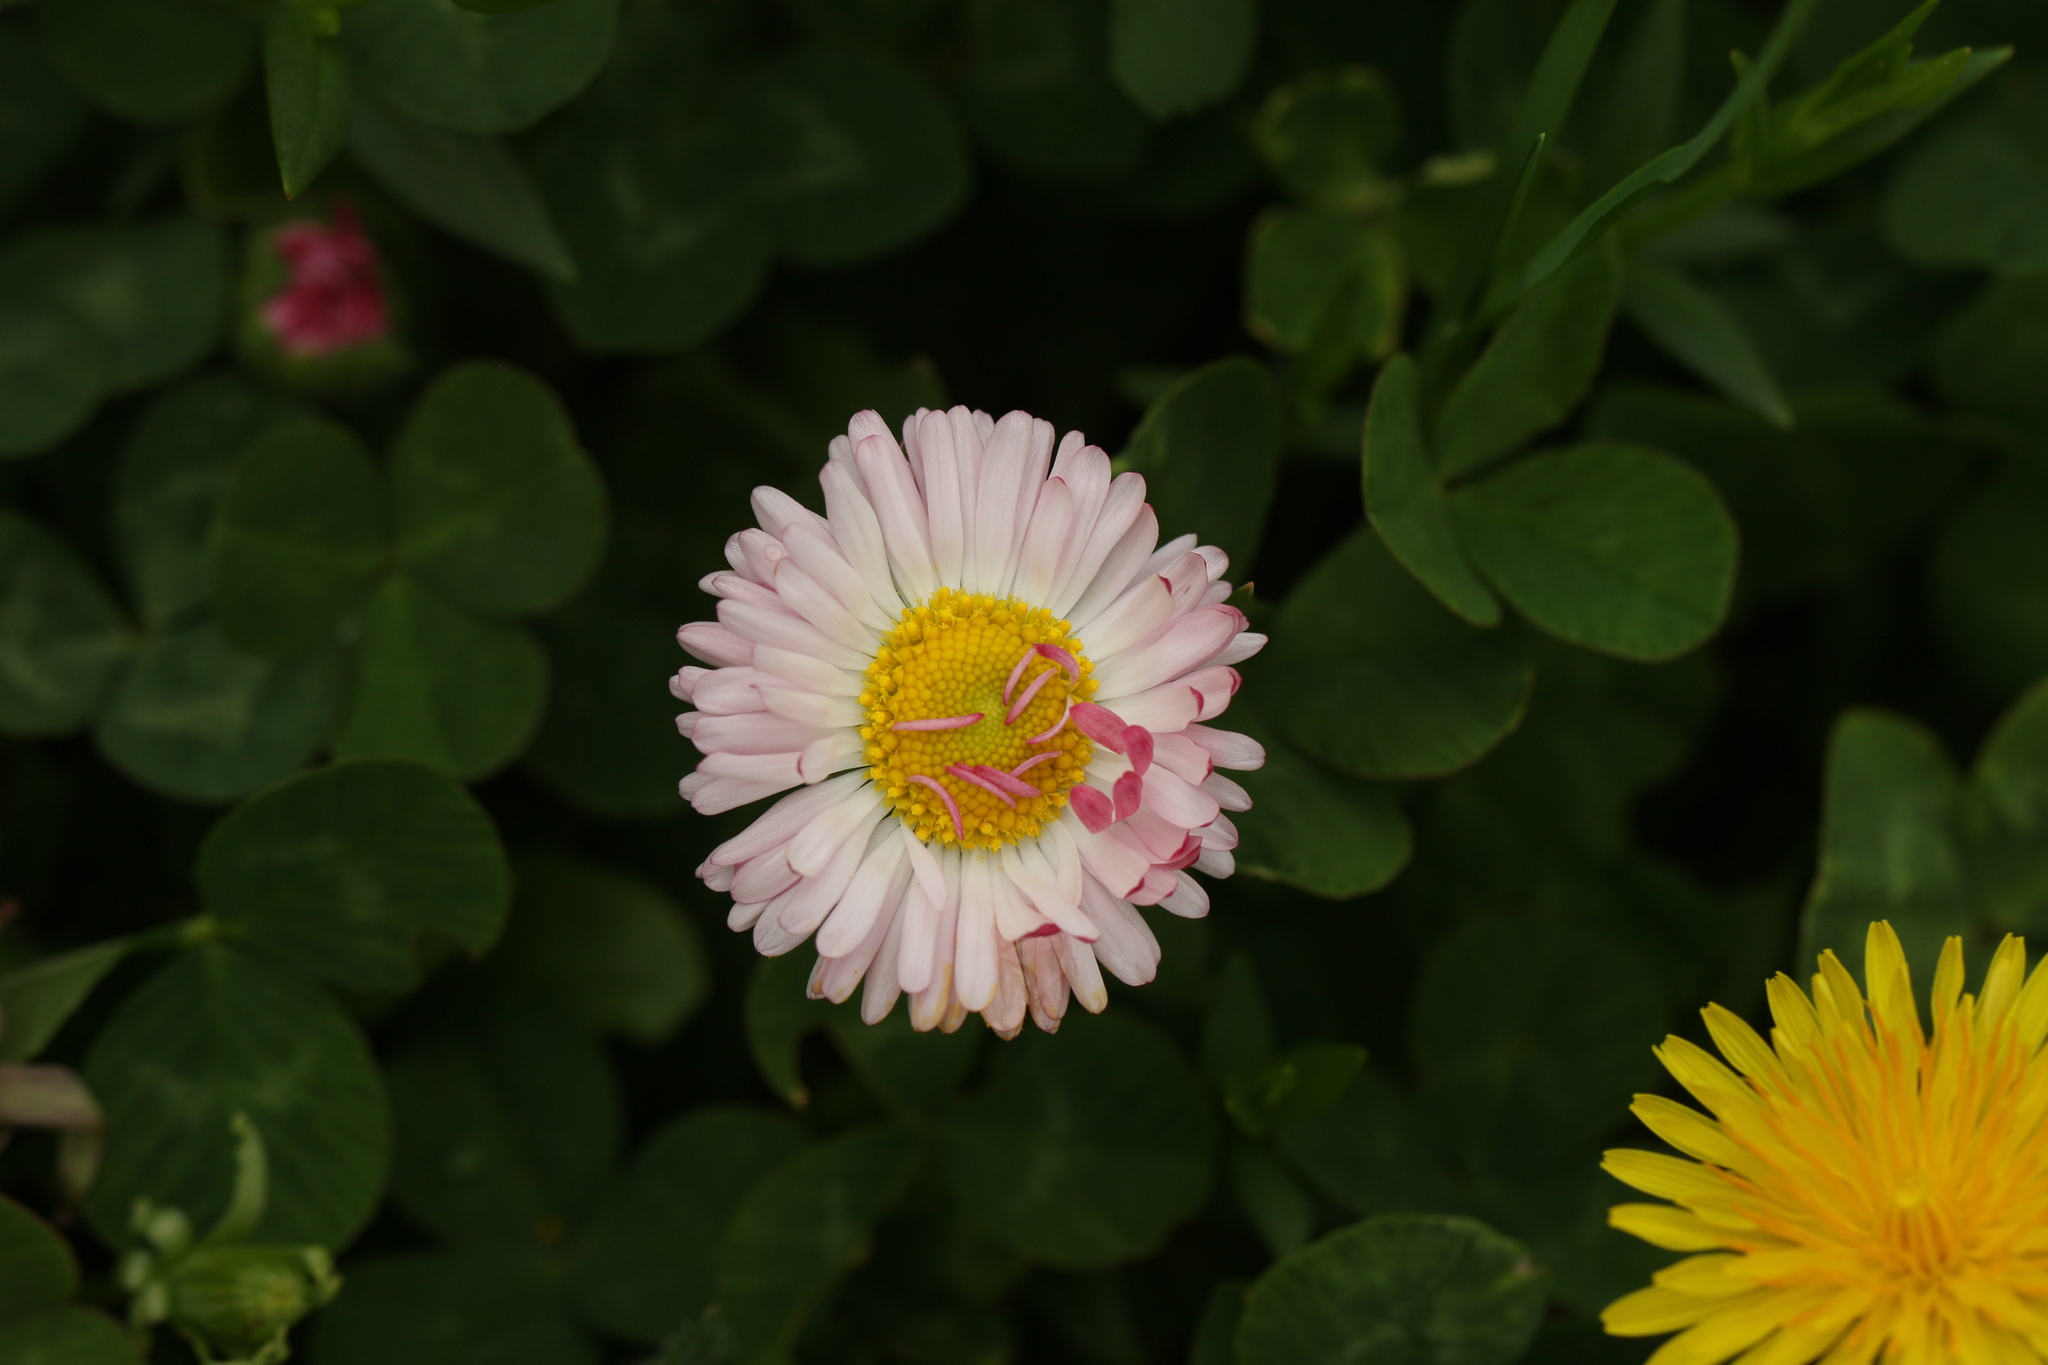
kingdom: Plantae
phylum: Tracheophyta
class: Magnoliopsida
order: Asterales
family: Asteraceae
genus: Bellis
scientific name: Bellis perennis
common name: Lawndaisy
